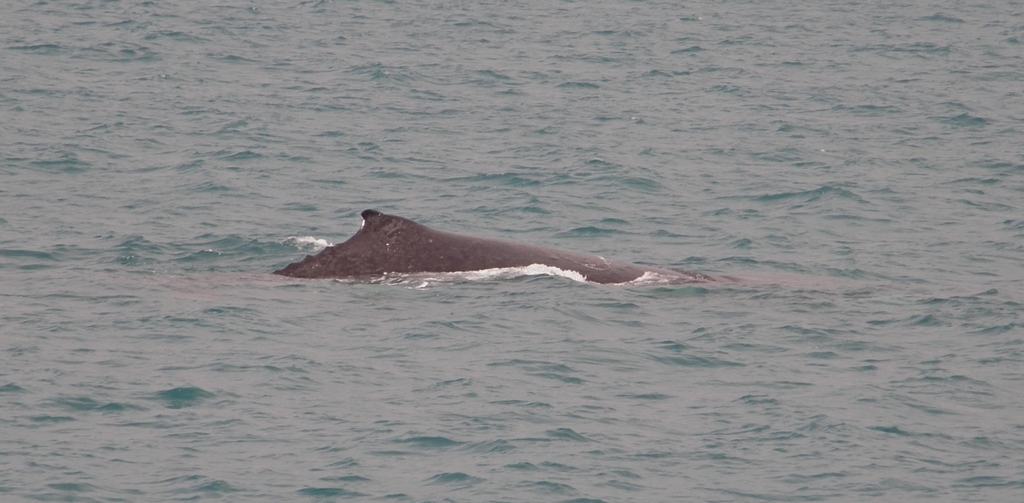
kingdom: Animalia
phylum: Chordata
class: Mammalia
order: Cetacea
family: Balaenopteridae
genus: Megaptera
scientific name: Megaptera novaeangliae
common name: Humpback whale
